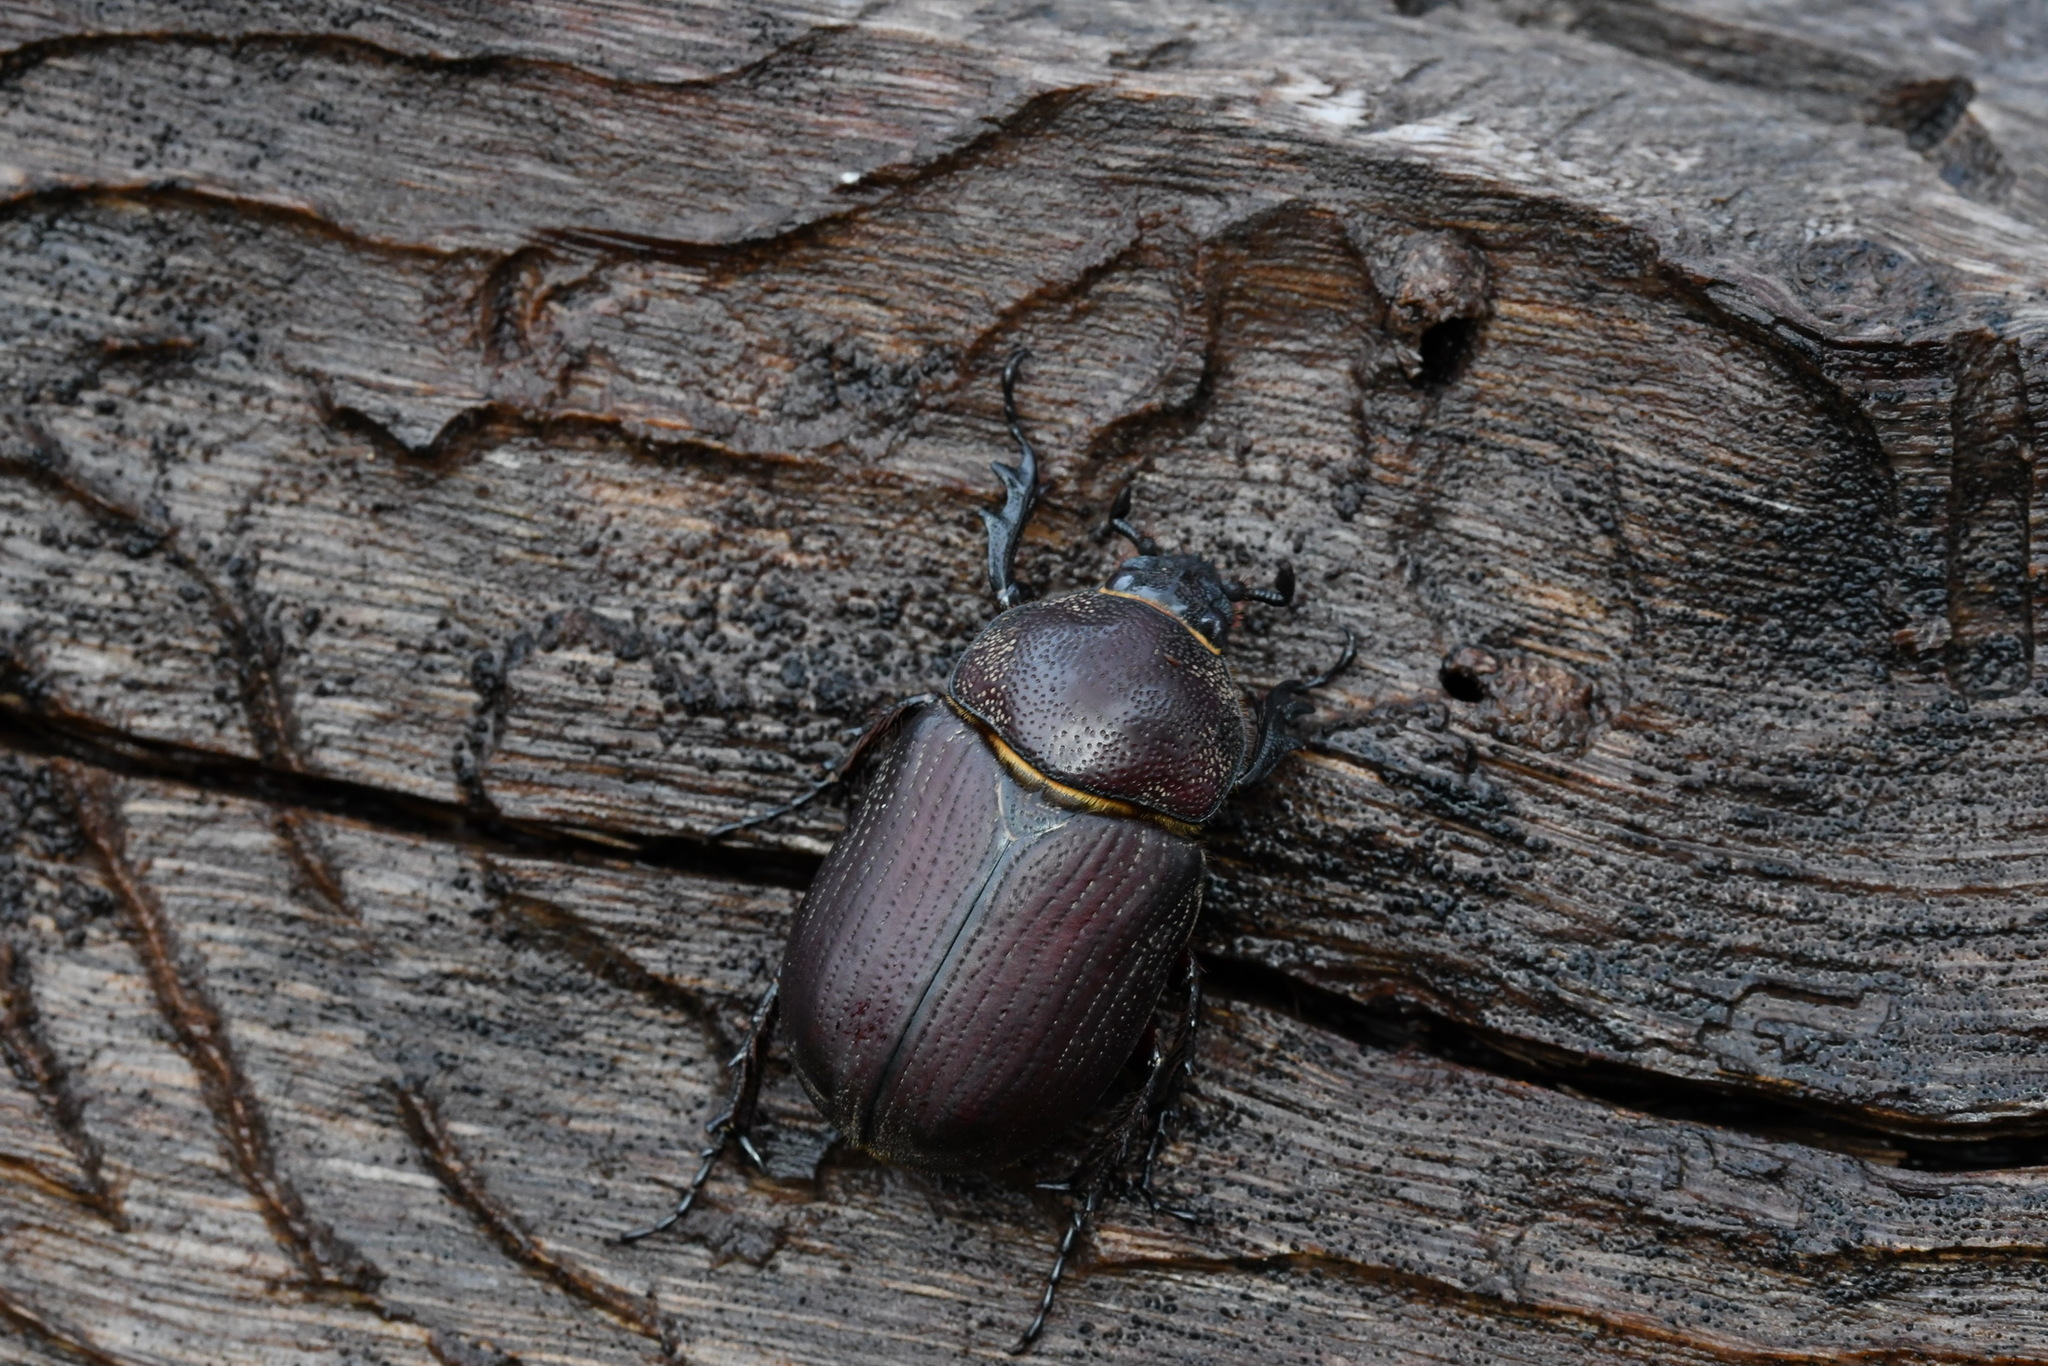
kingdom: Animalia
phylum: Arthropoda
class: Insecta
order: Coleoptera
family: Scarabaeidae
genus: Coelosis
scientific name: Coelosis bicornis
